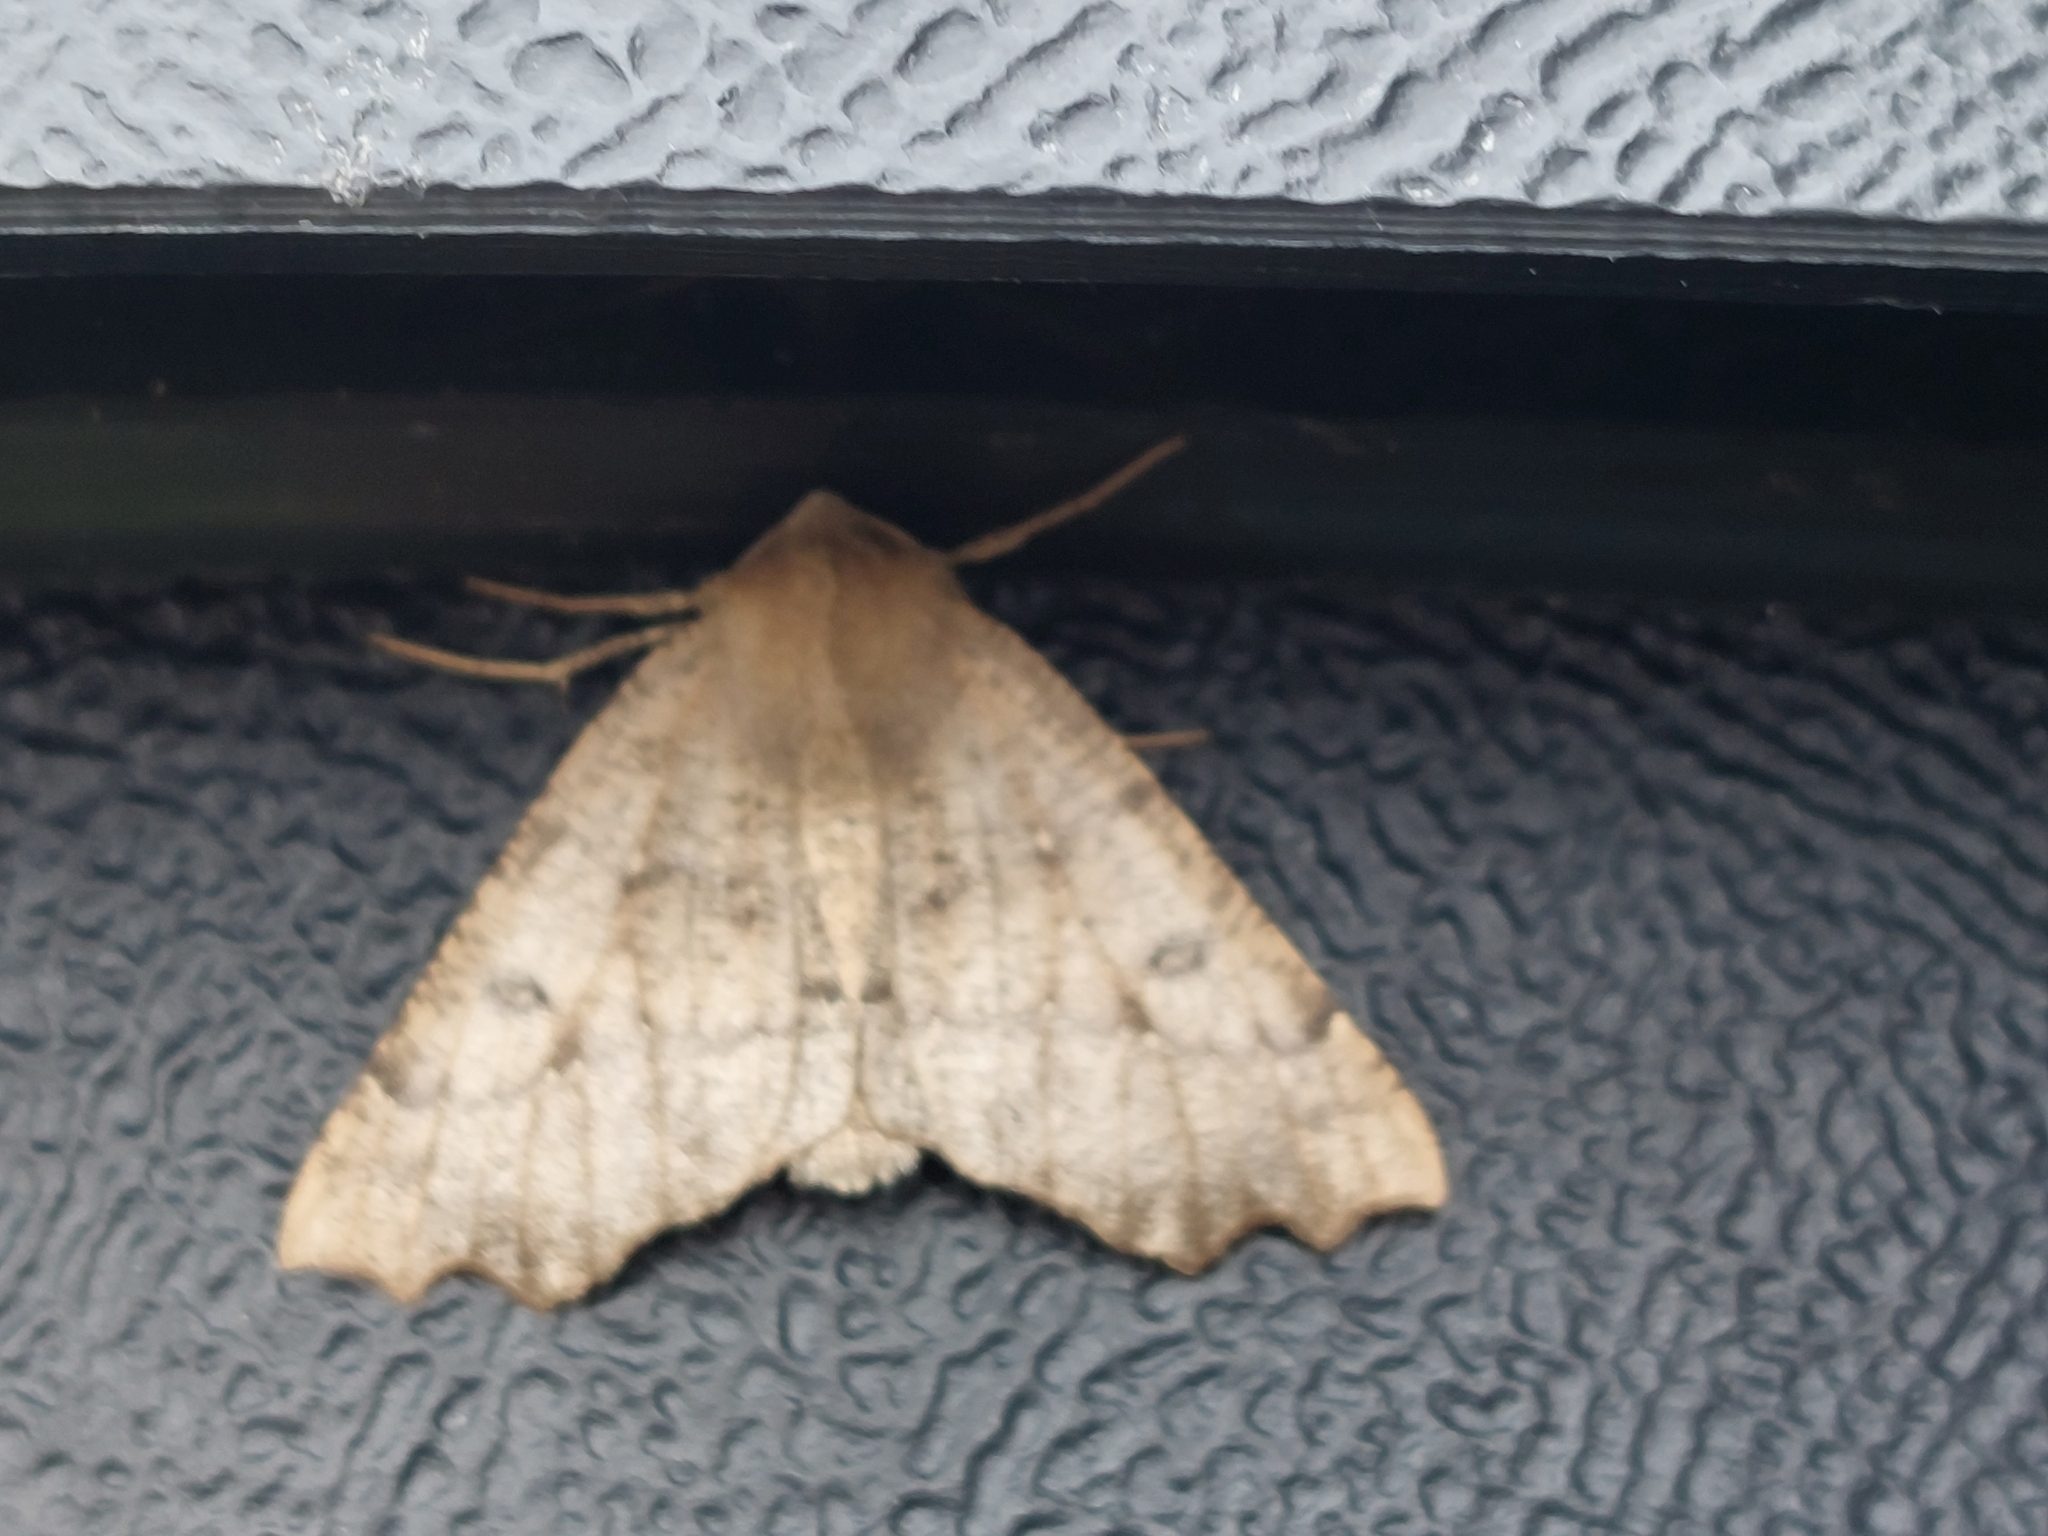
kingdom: Animalia
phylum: Arthropoda
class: Insecta
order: Lepidoptera
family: Geometridae
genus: Odontopera
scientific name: Odontopera bidentata
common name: Scalloped hazel
